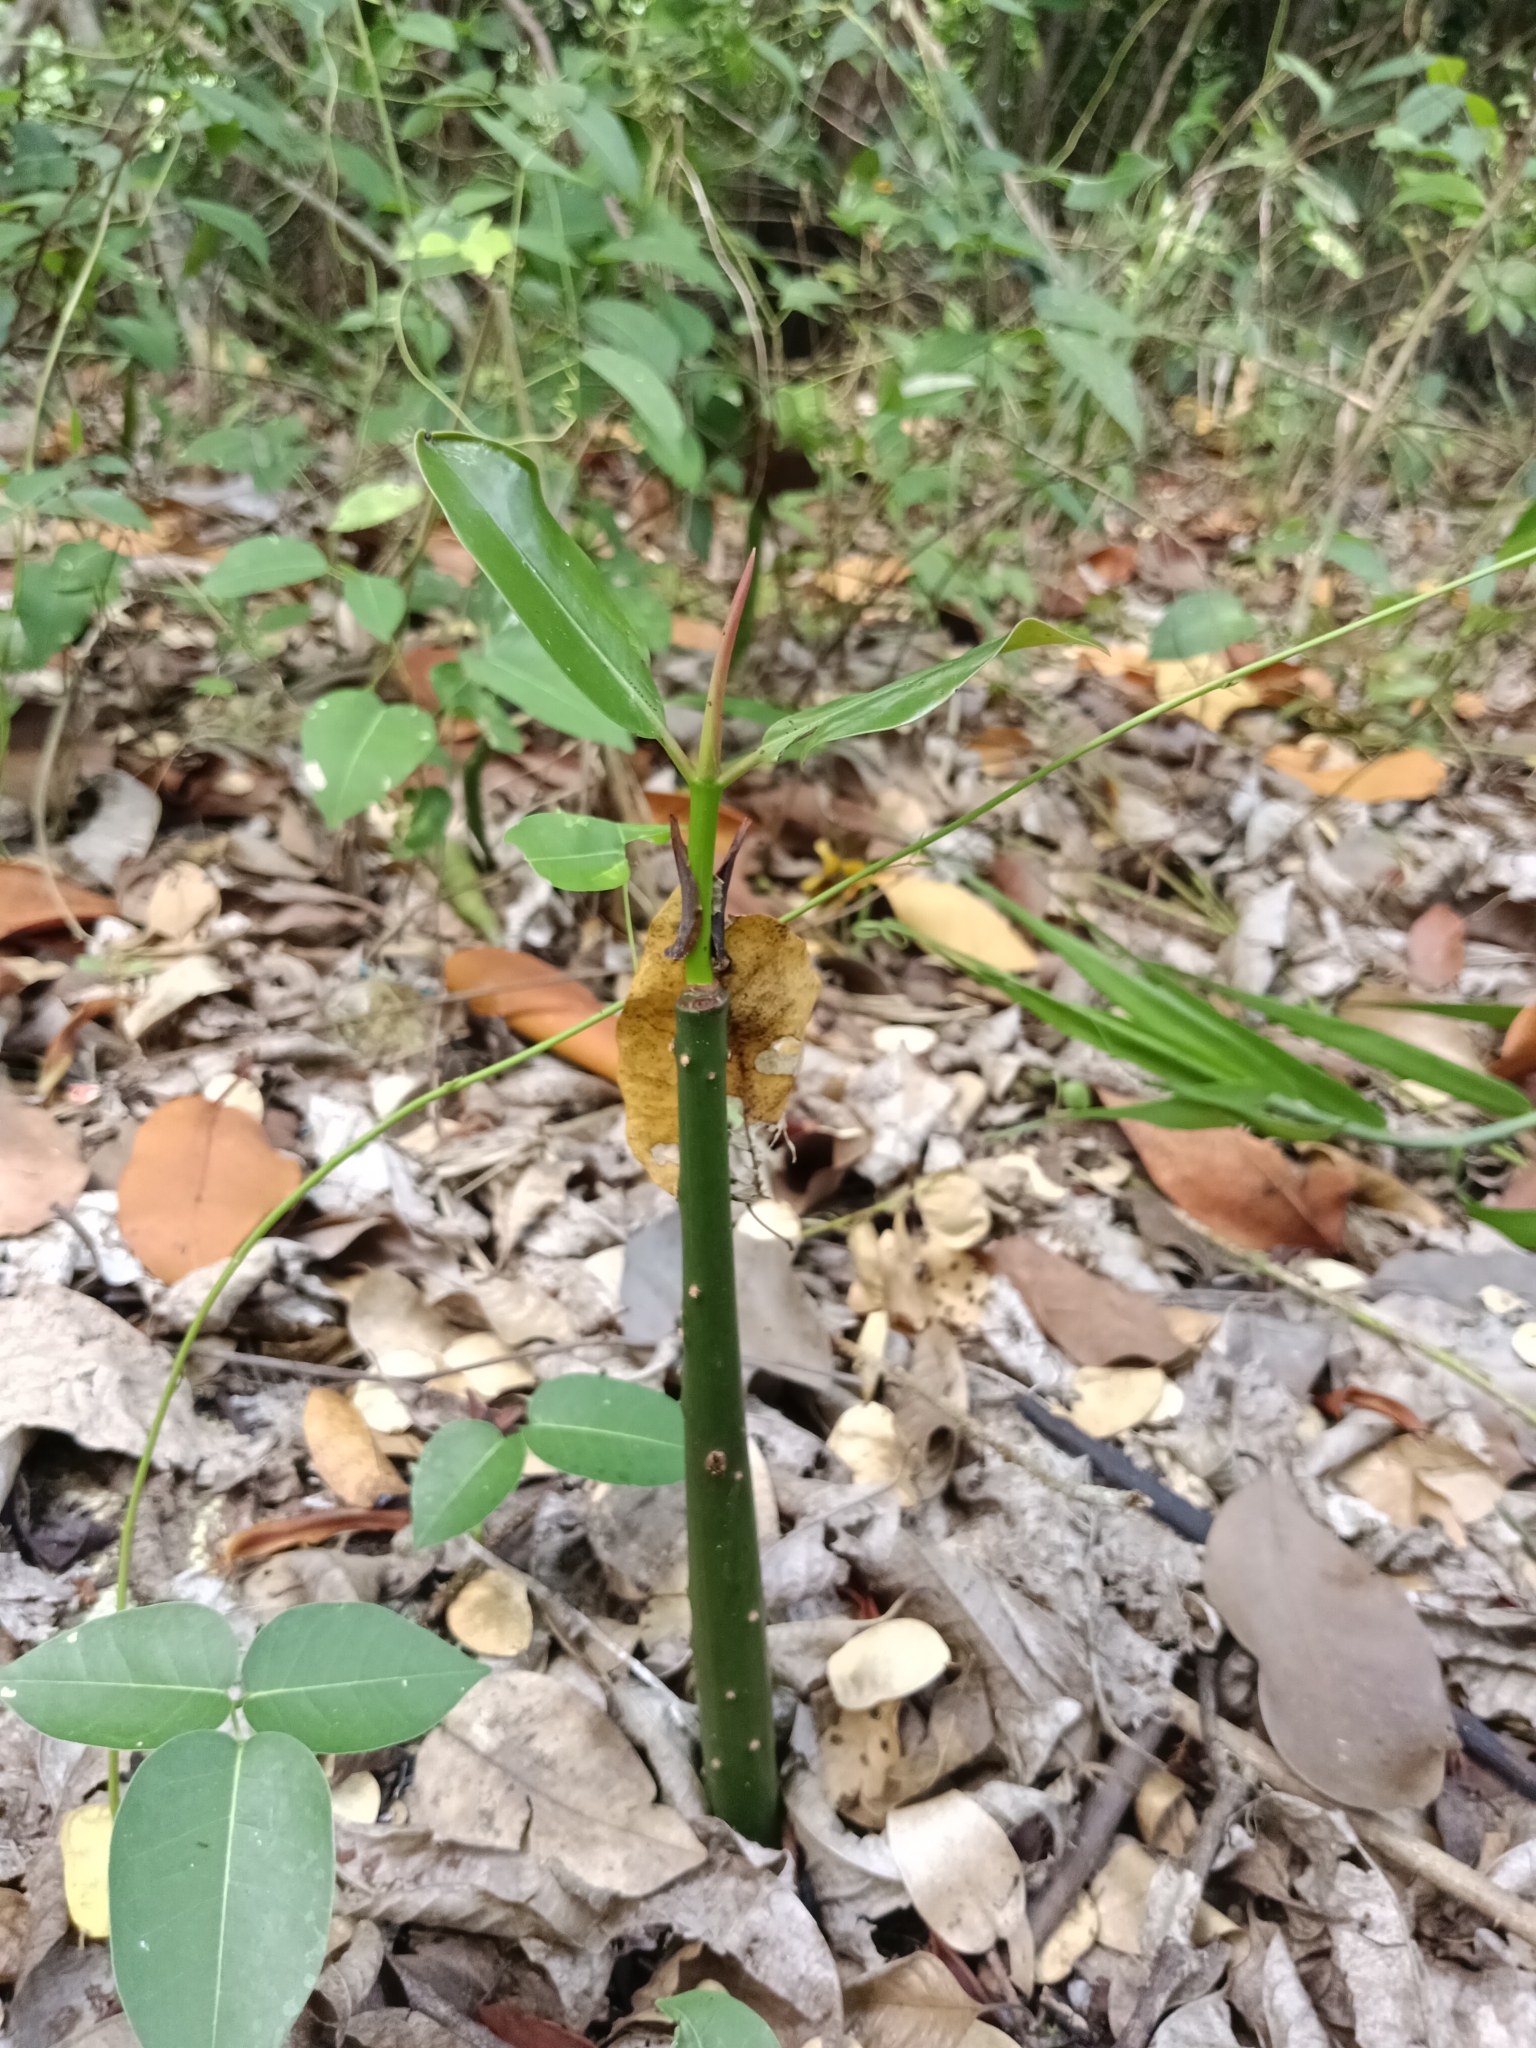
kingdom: Plantae
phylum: Tracheophyta
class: Magnoliopsida
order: Malpighiales
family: Rhizophoraceae
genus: Rhizophora
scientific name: Rhizophora mangle
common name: Red mangrove
